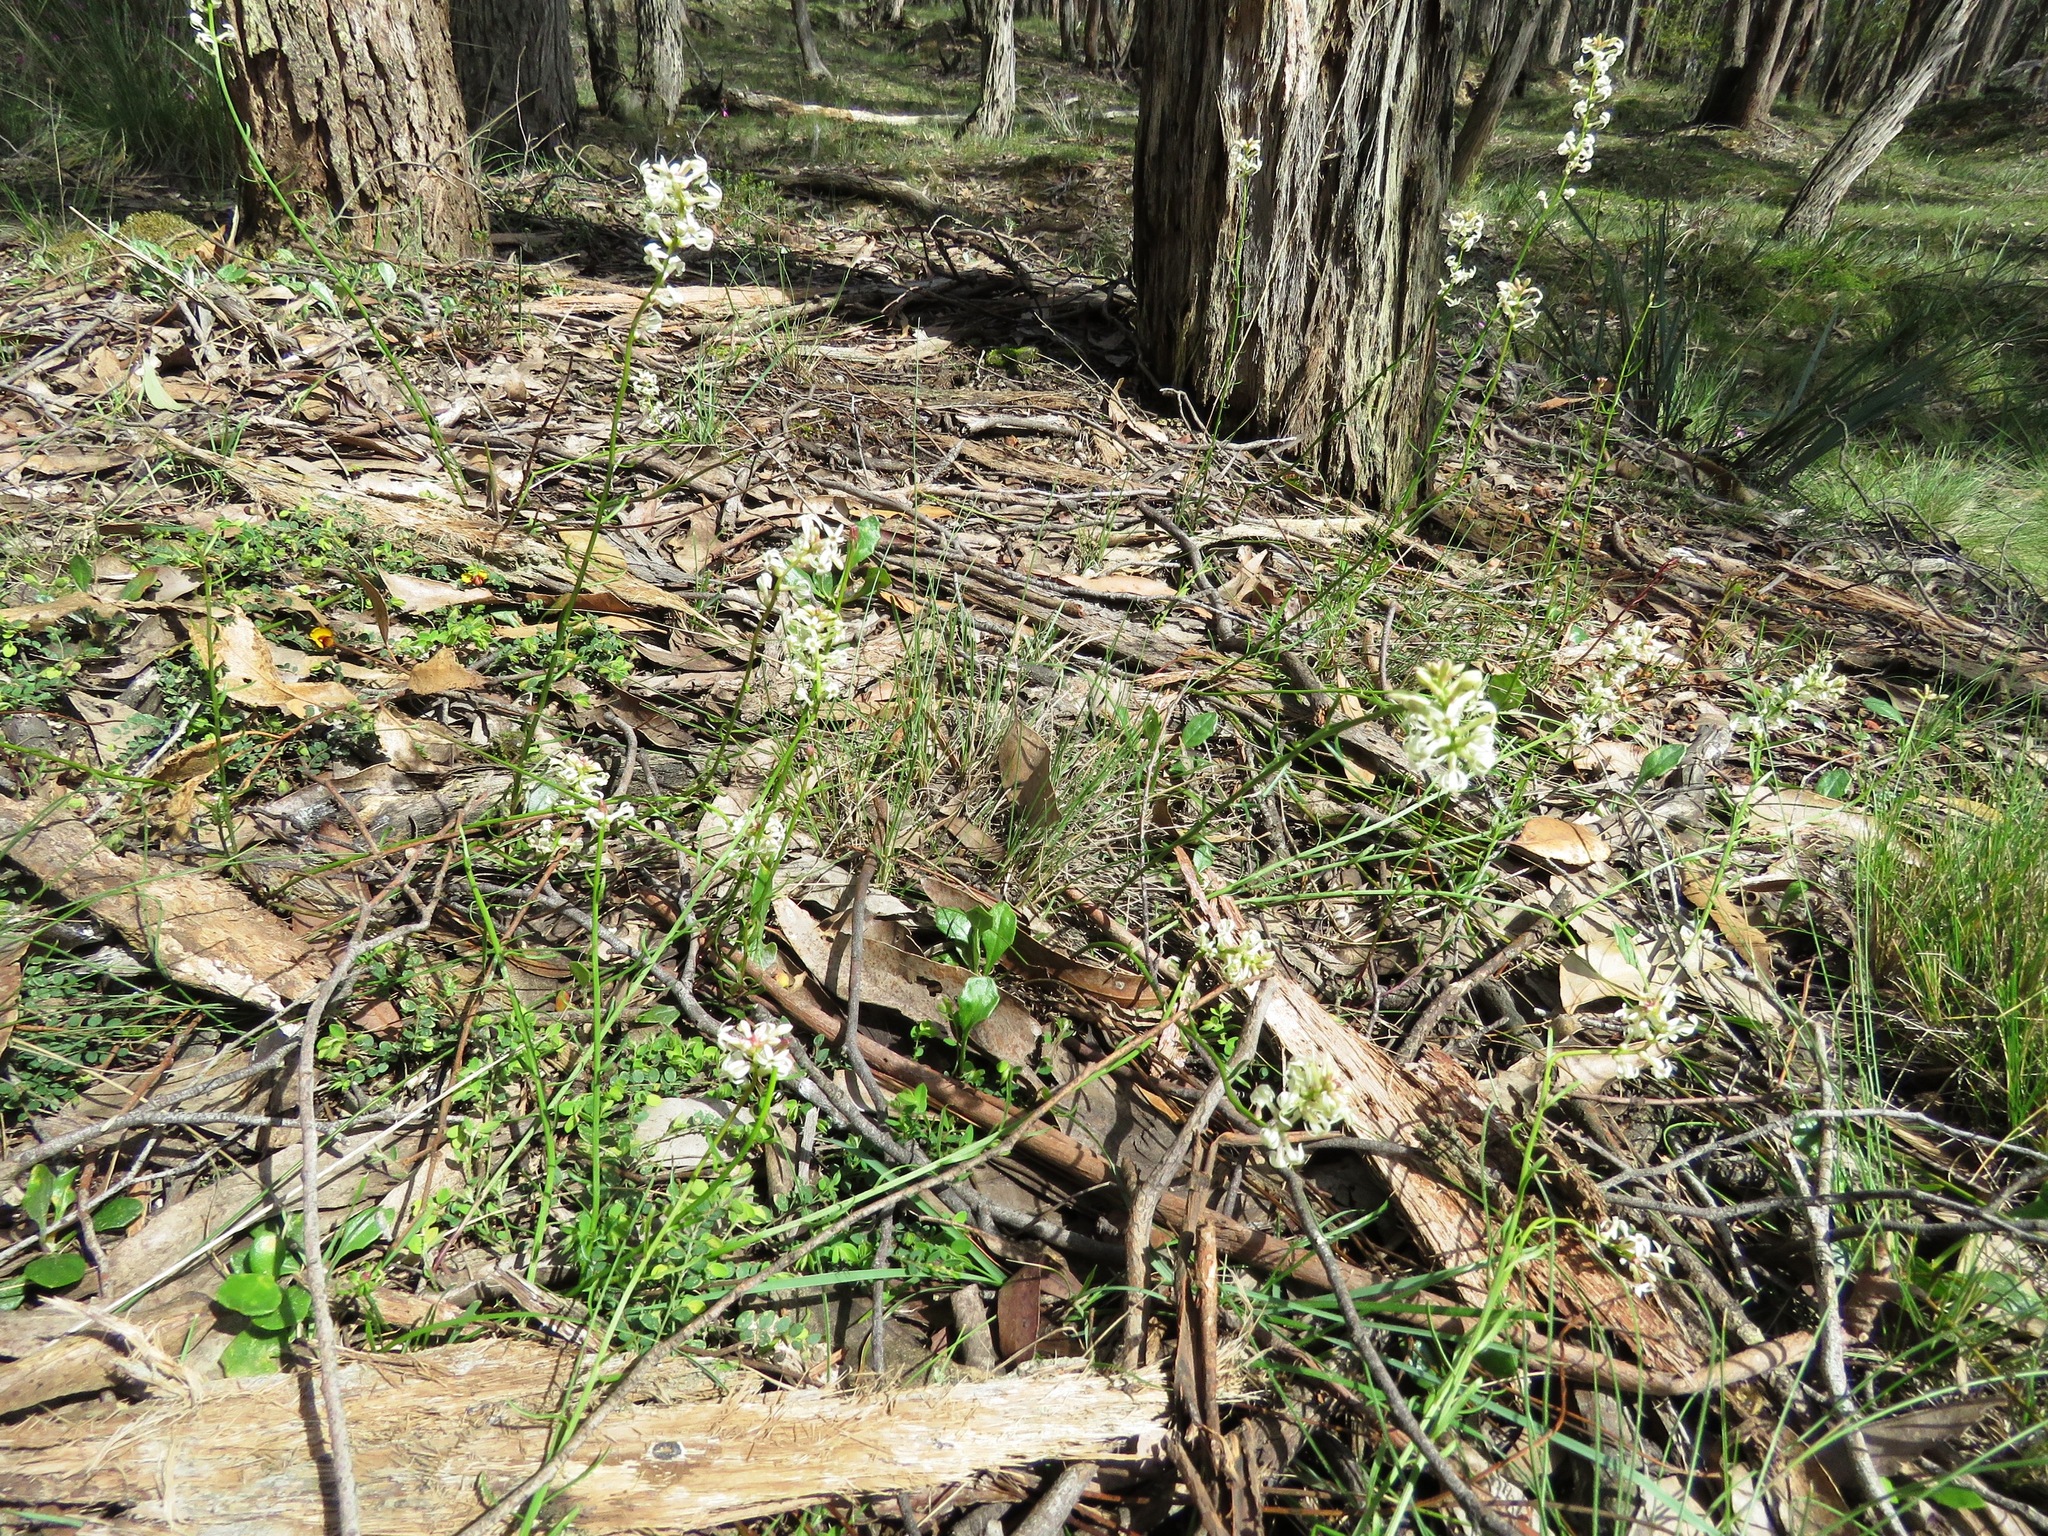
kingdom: Plantae
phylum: Tracheophyta
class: Magnoliopsida
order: Celastrales
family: Celastraceae
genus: Stackhousia
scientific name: Stackhousia monogyna
